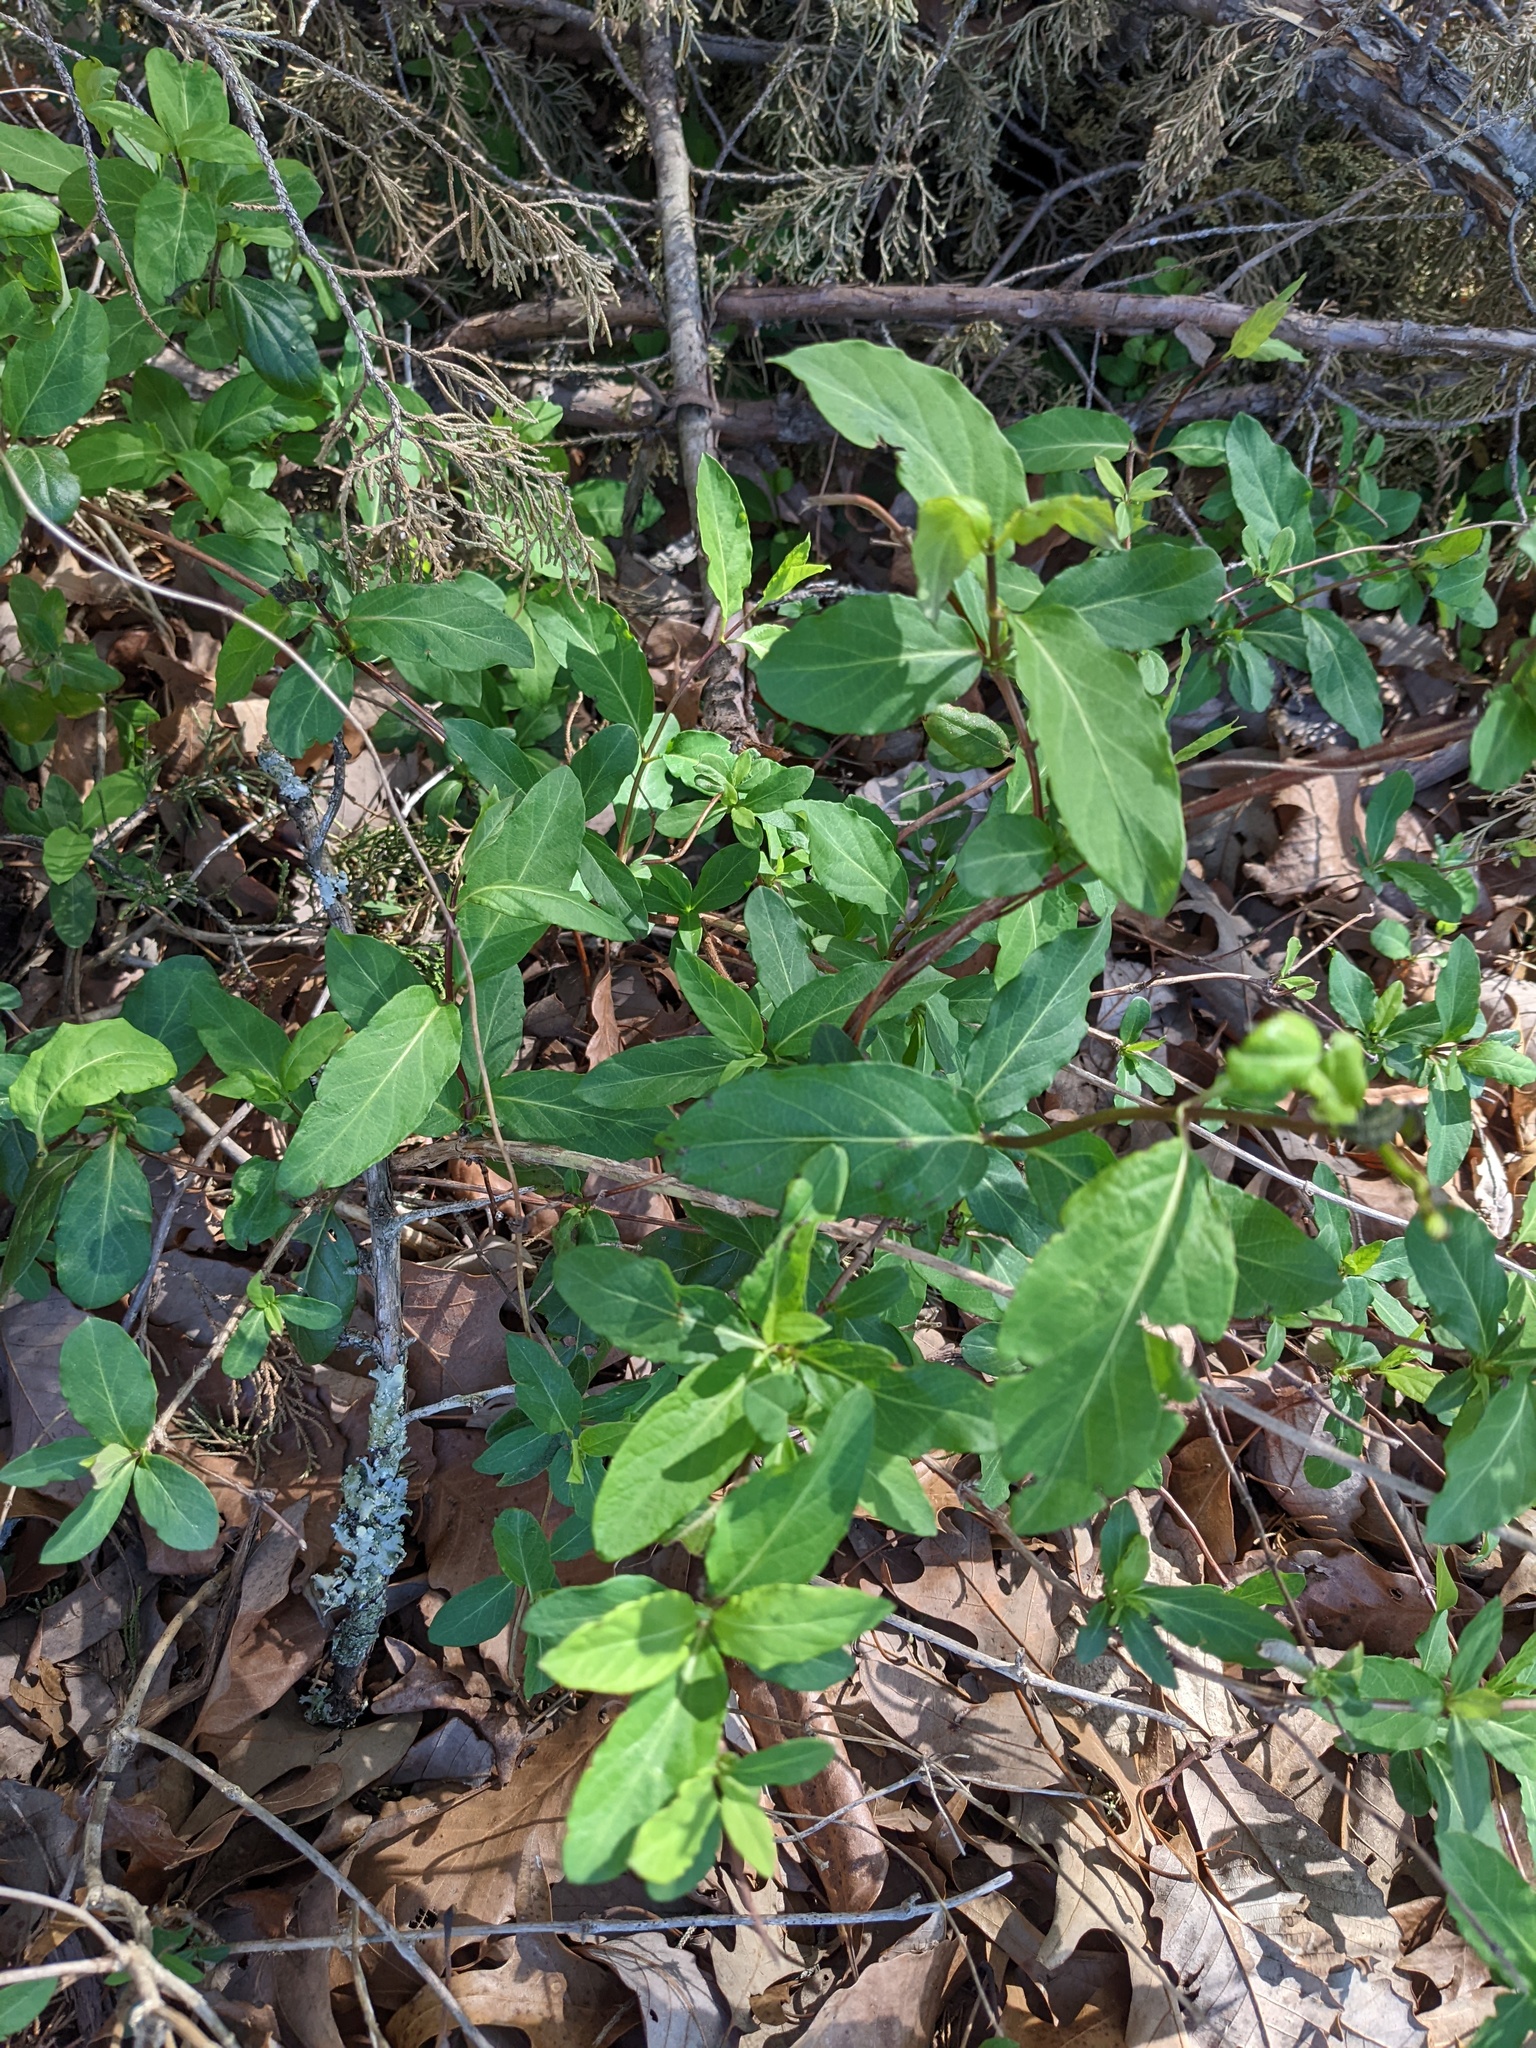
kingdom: Plantae
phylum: Tracheophyta
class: Magnoliopsida
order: Dipsacales
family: Caprifoliaceae
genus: Lonicera
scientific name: Lonicera japonica
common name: Japanese honeysuckle
